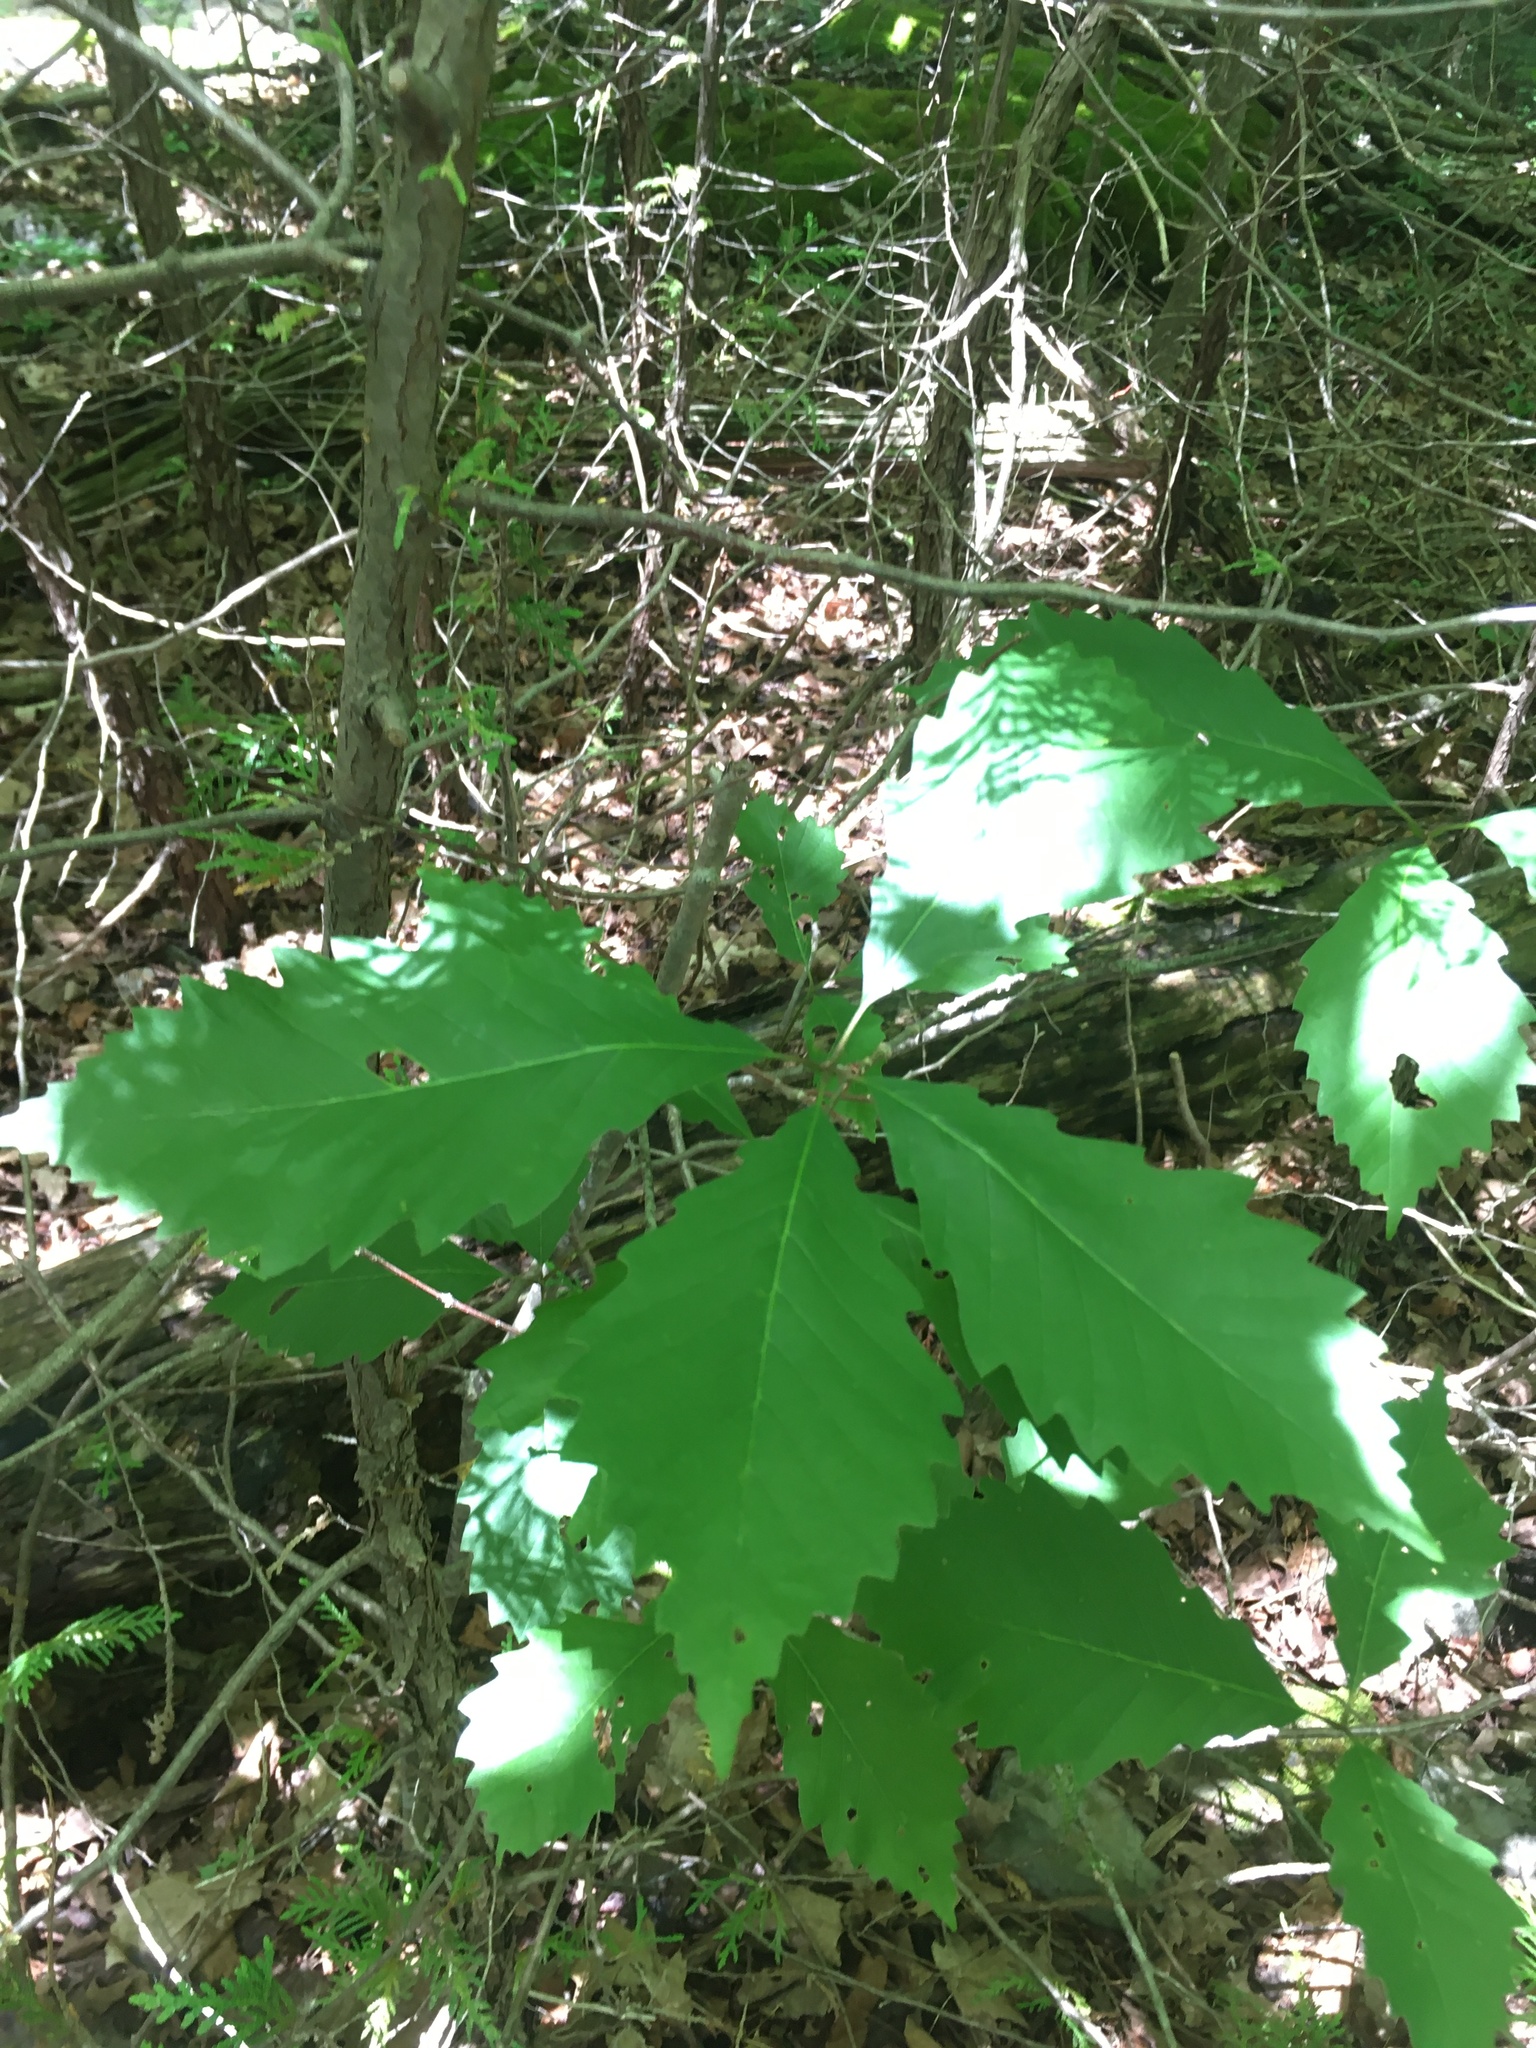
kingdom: Plantae
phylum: Tracheophyta
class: Magnoliopsida
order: Fagales
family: Fagaceae
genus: Quercus
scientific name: Quercus muehlenbergii
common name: Chinkapin oak
